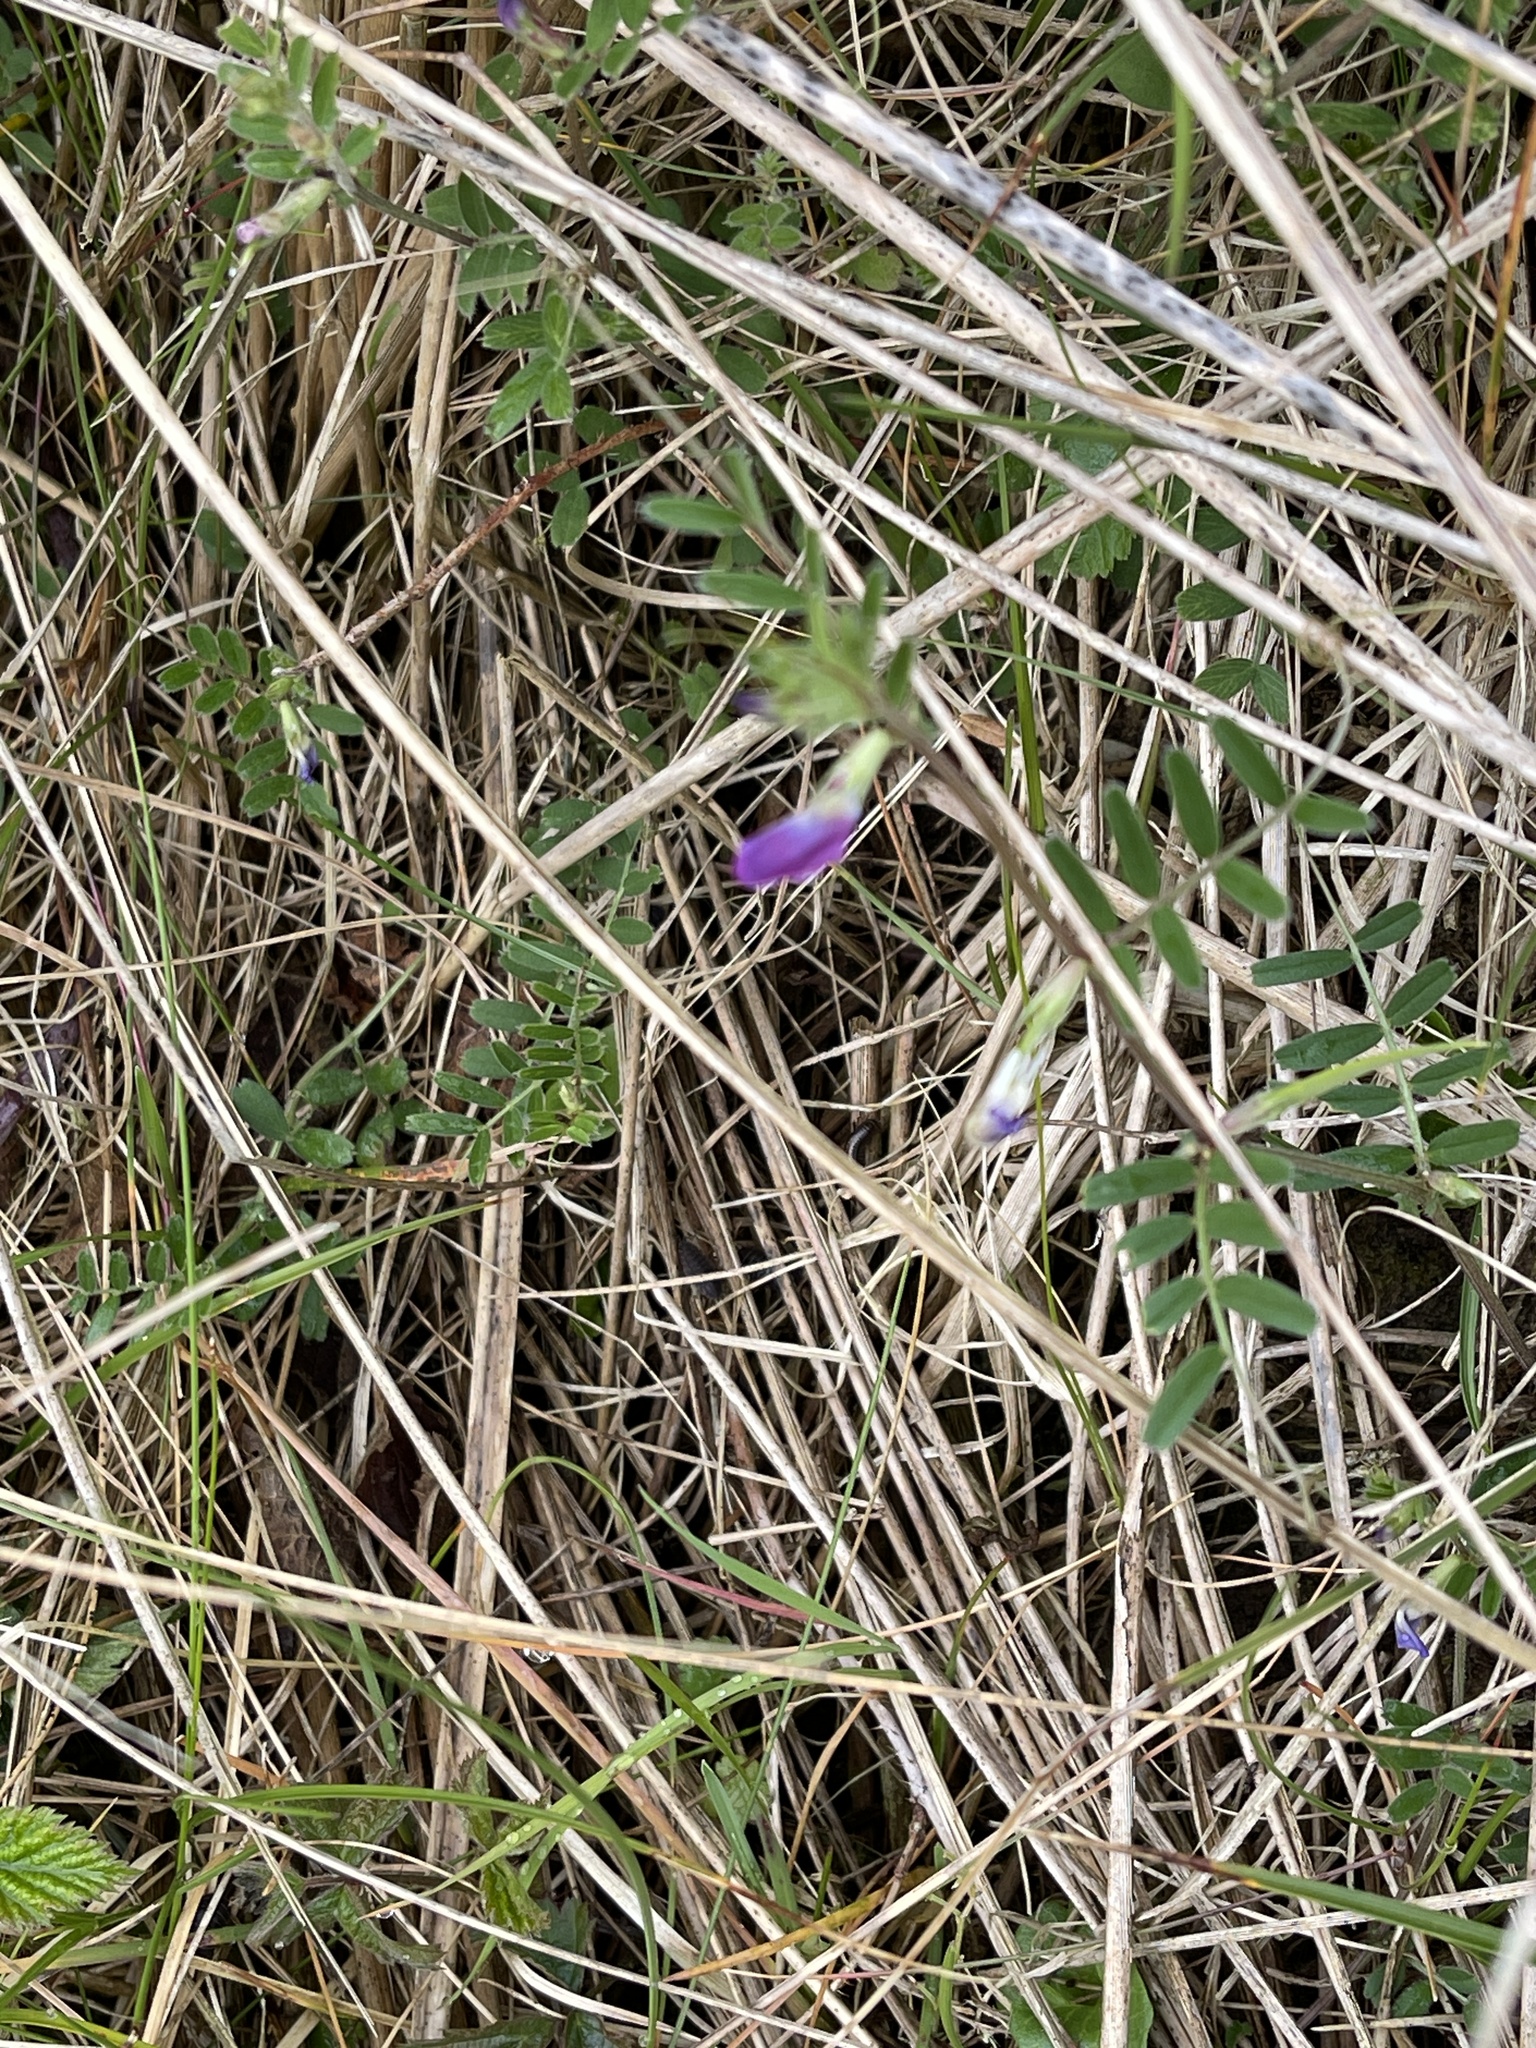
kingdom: Plantae
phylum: Tracheophyta
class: Magnoliopsida
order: Fabales
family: Fabaceae
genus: Vicia
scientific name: Vicia sativa
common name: Garden vetch
